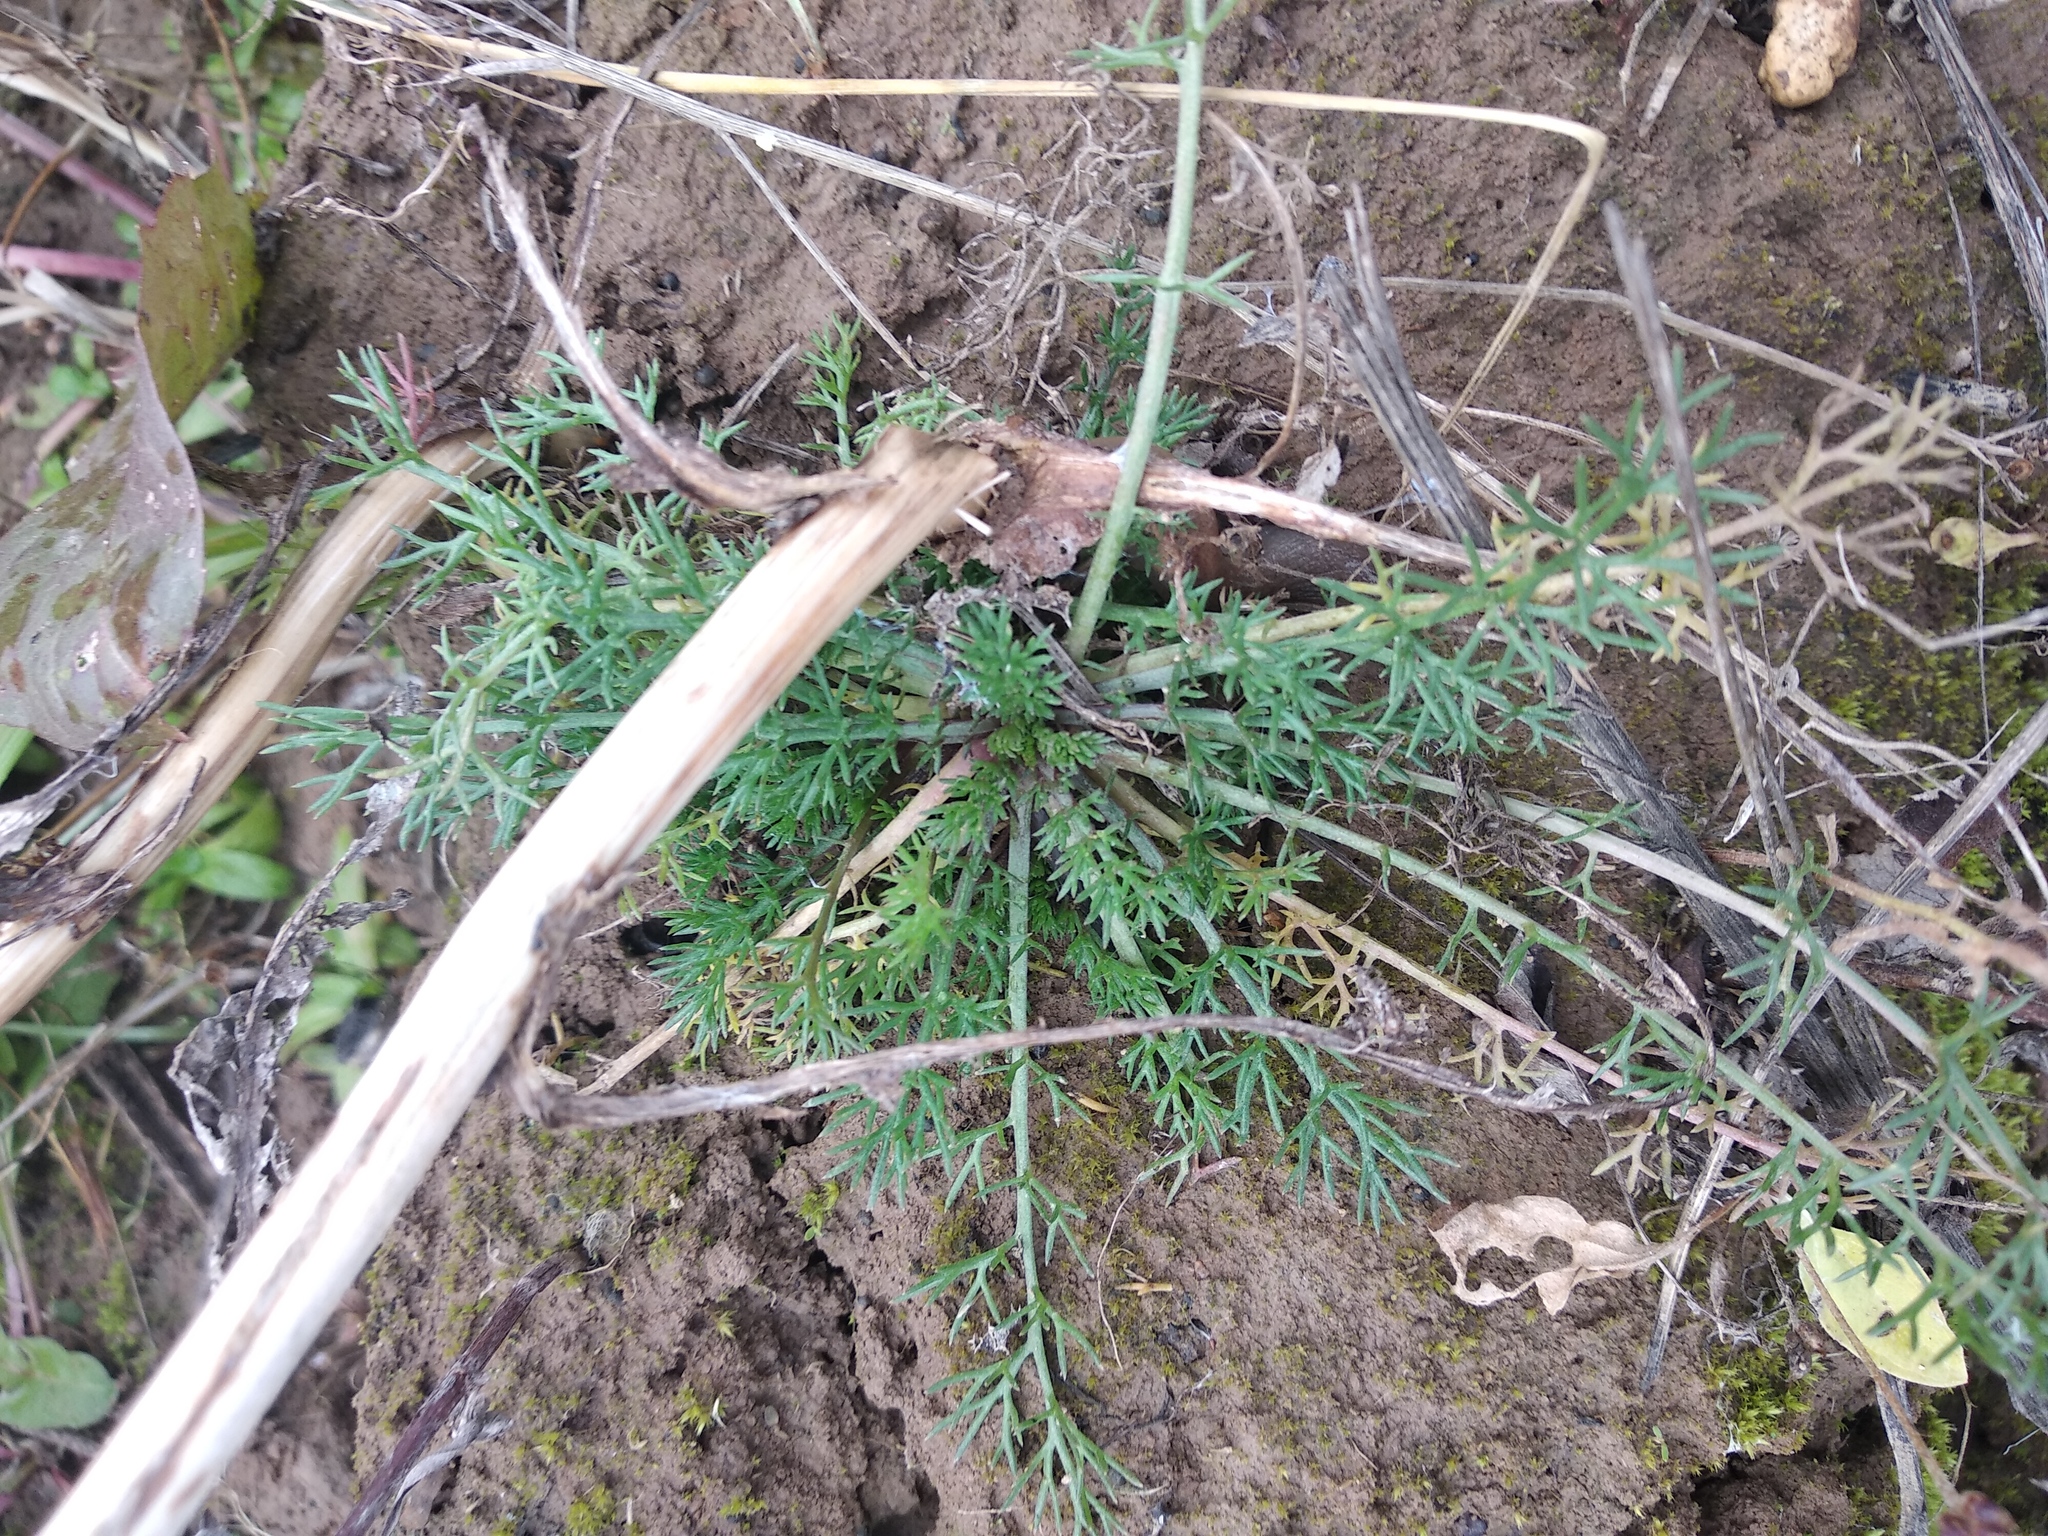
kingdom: Plantae
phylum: Tracheophyta
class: Magnoliopsida
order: Asterales
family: Asteraceae
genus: Tripleurospermum
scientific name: Tripleurospermum inodorum
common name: Scentless mayweed
